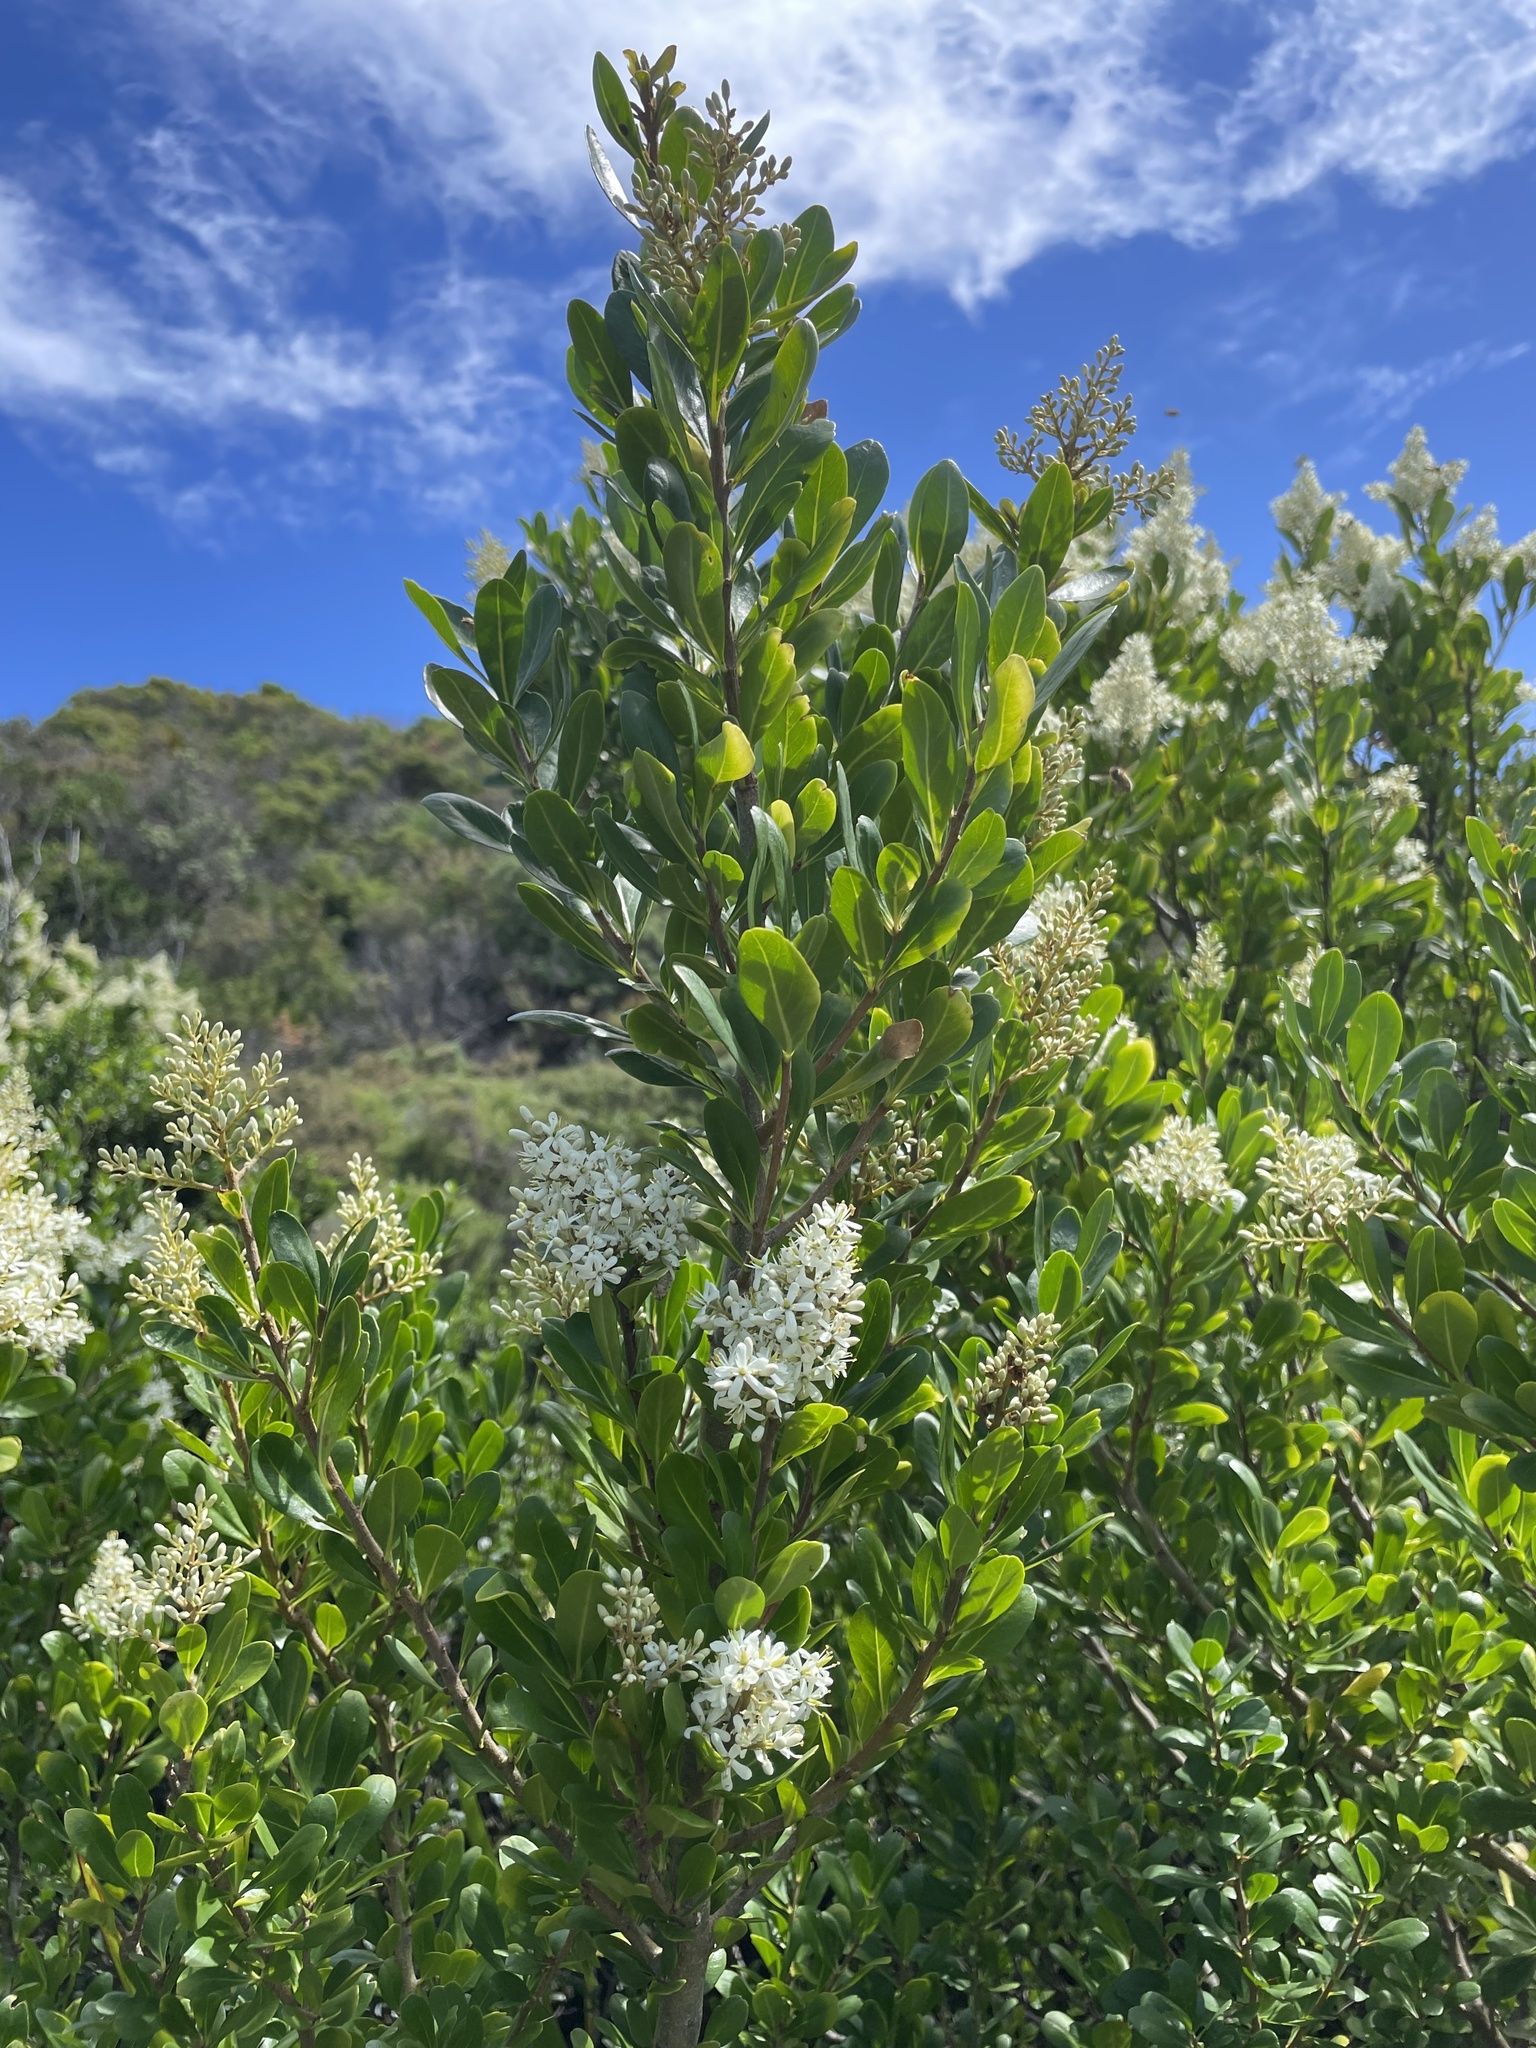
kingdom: Plantae
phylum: Tracheophyta
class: Magnoliopsida
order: Apiales
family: Pittosporaceae
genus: Bursaria
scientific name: Bursaria spinosa
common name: Australian blackthorn
